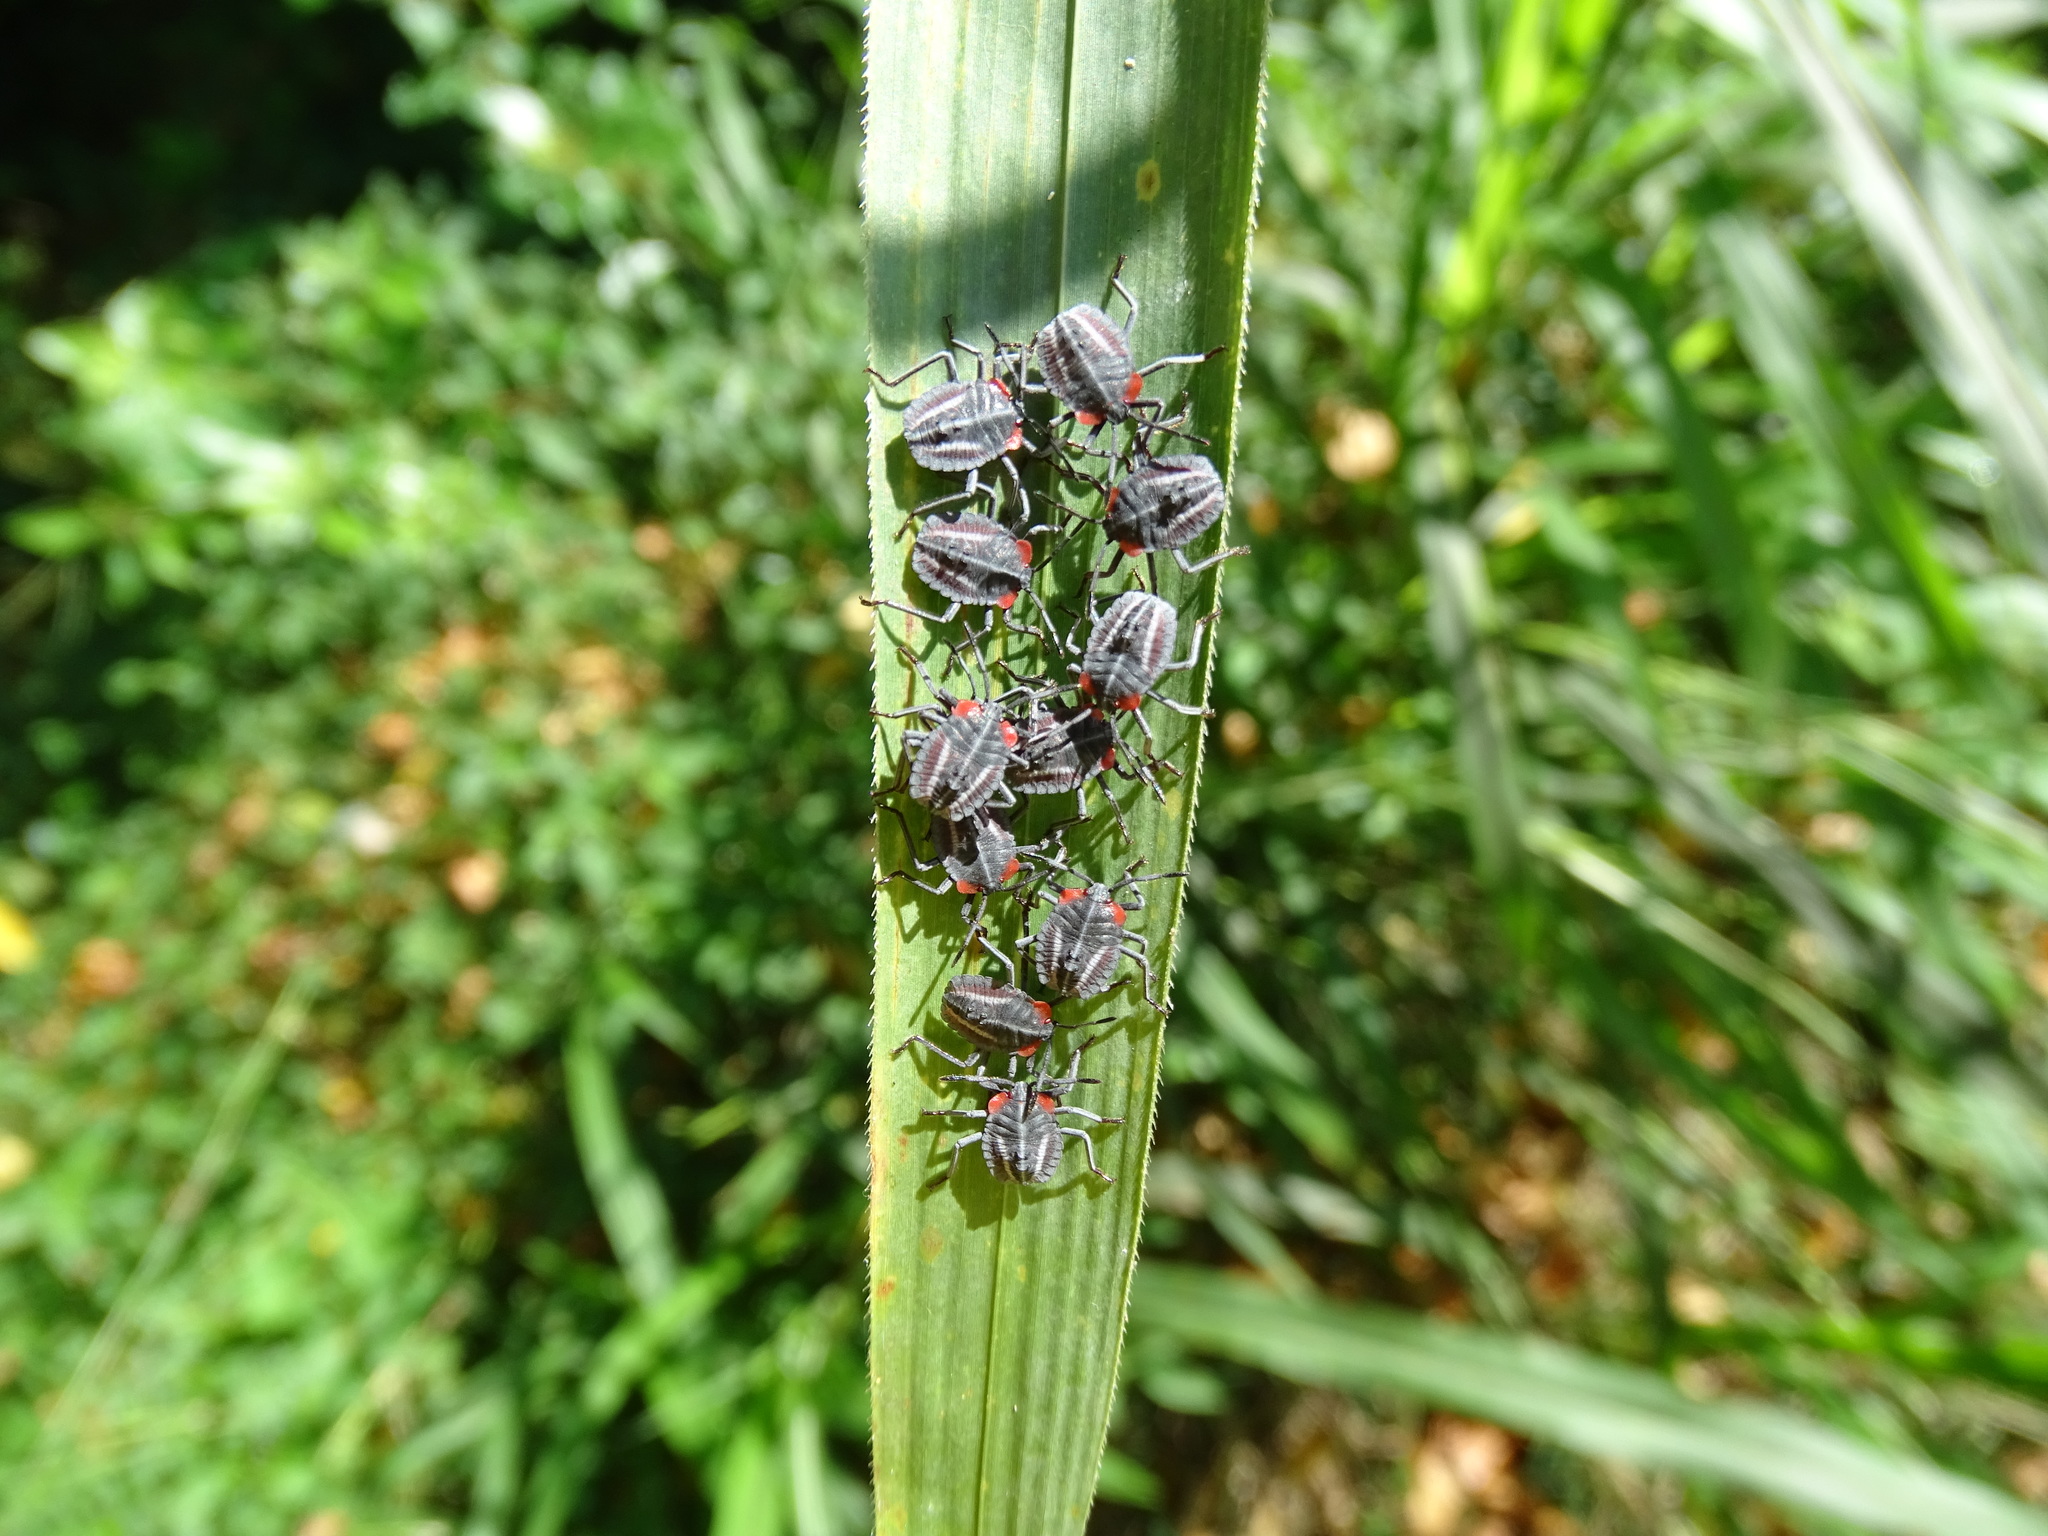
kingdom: Animalia
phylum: Arthropoda
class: Insecta
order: Hemiptera
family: Tessaratomidae
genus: Tessaratoma
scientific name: Tessaratoma papillosa
